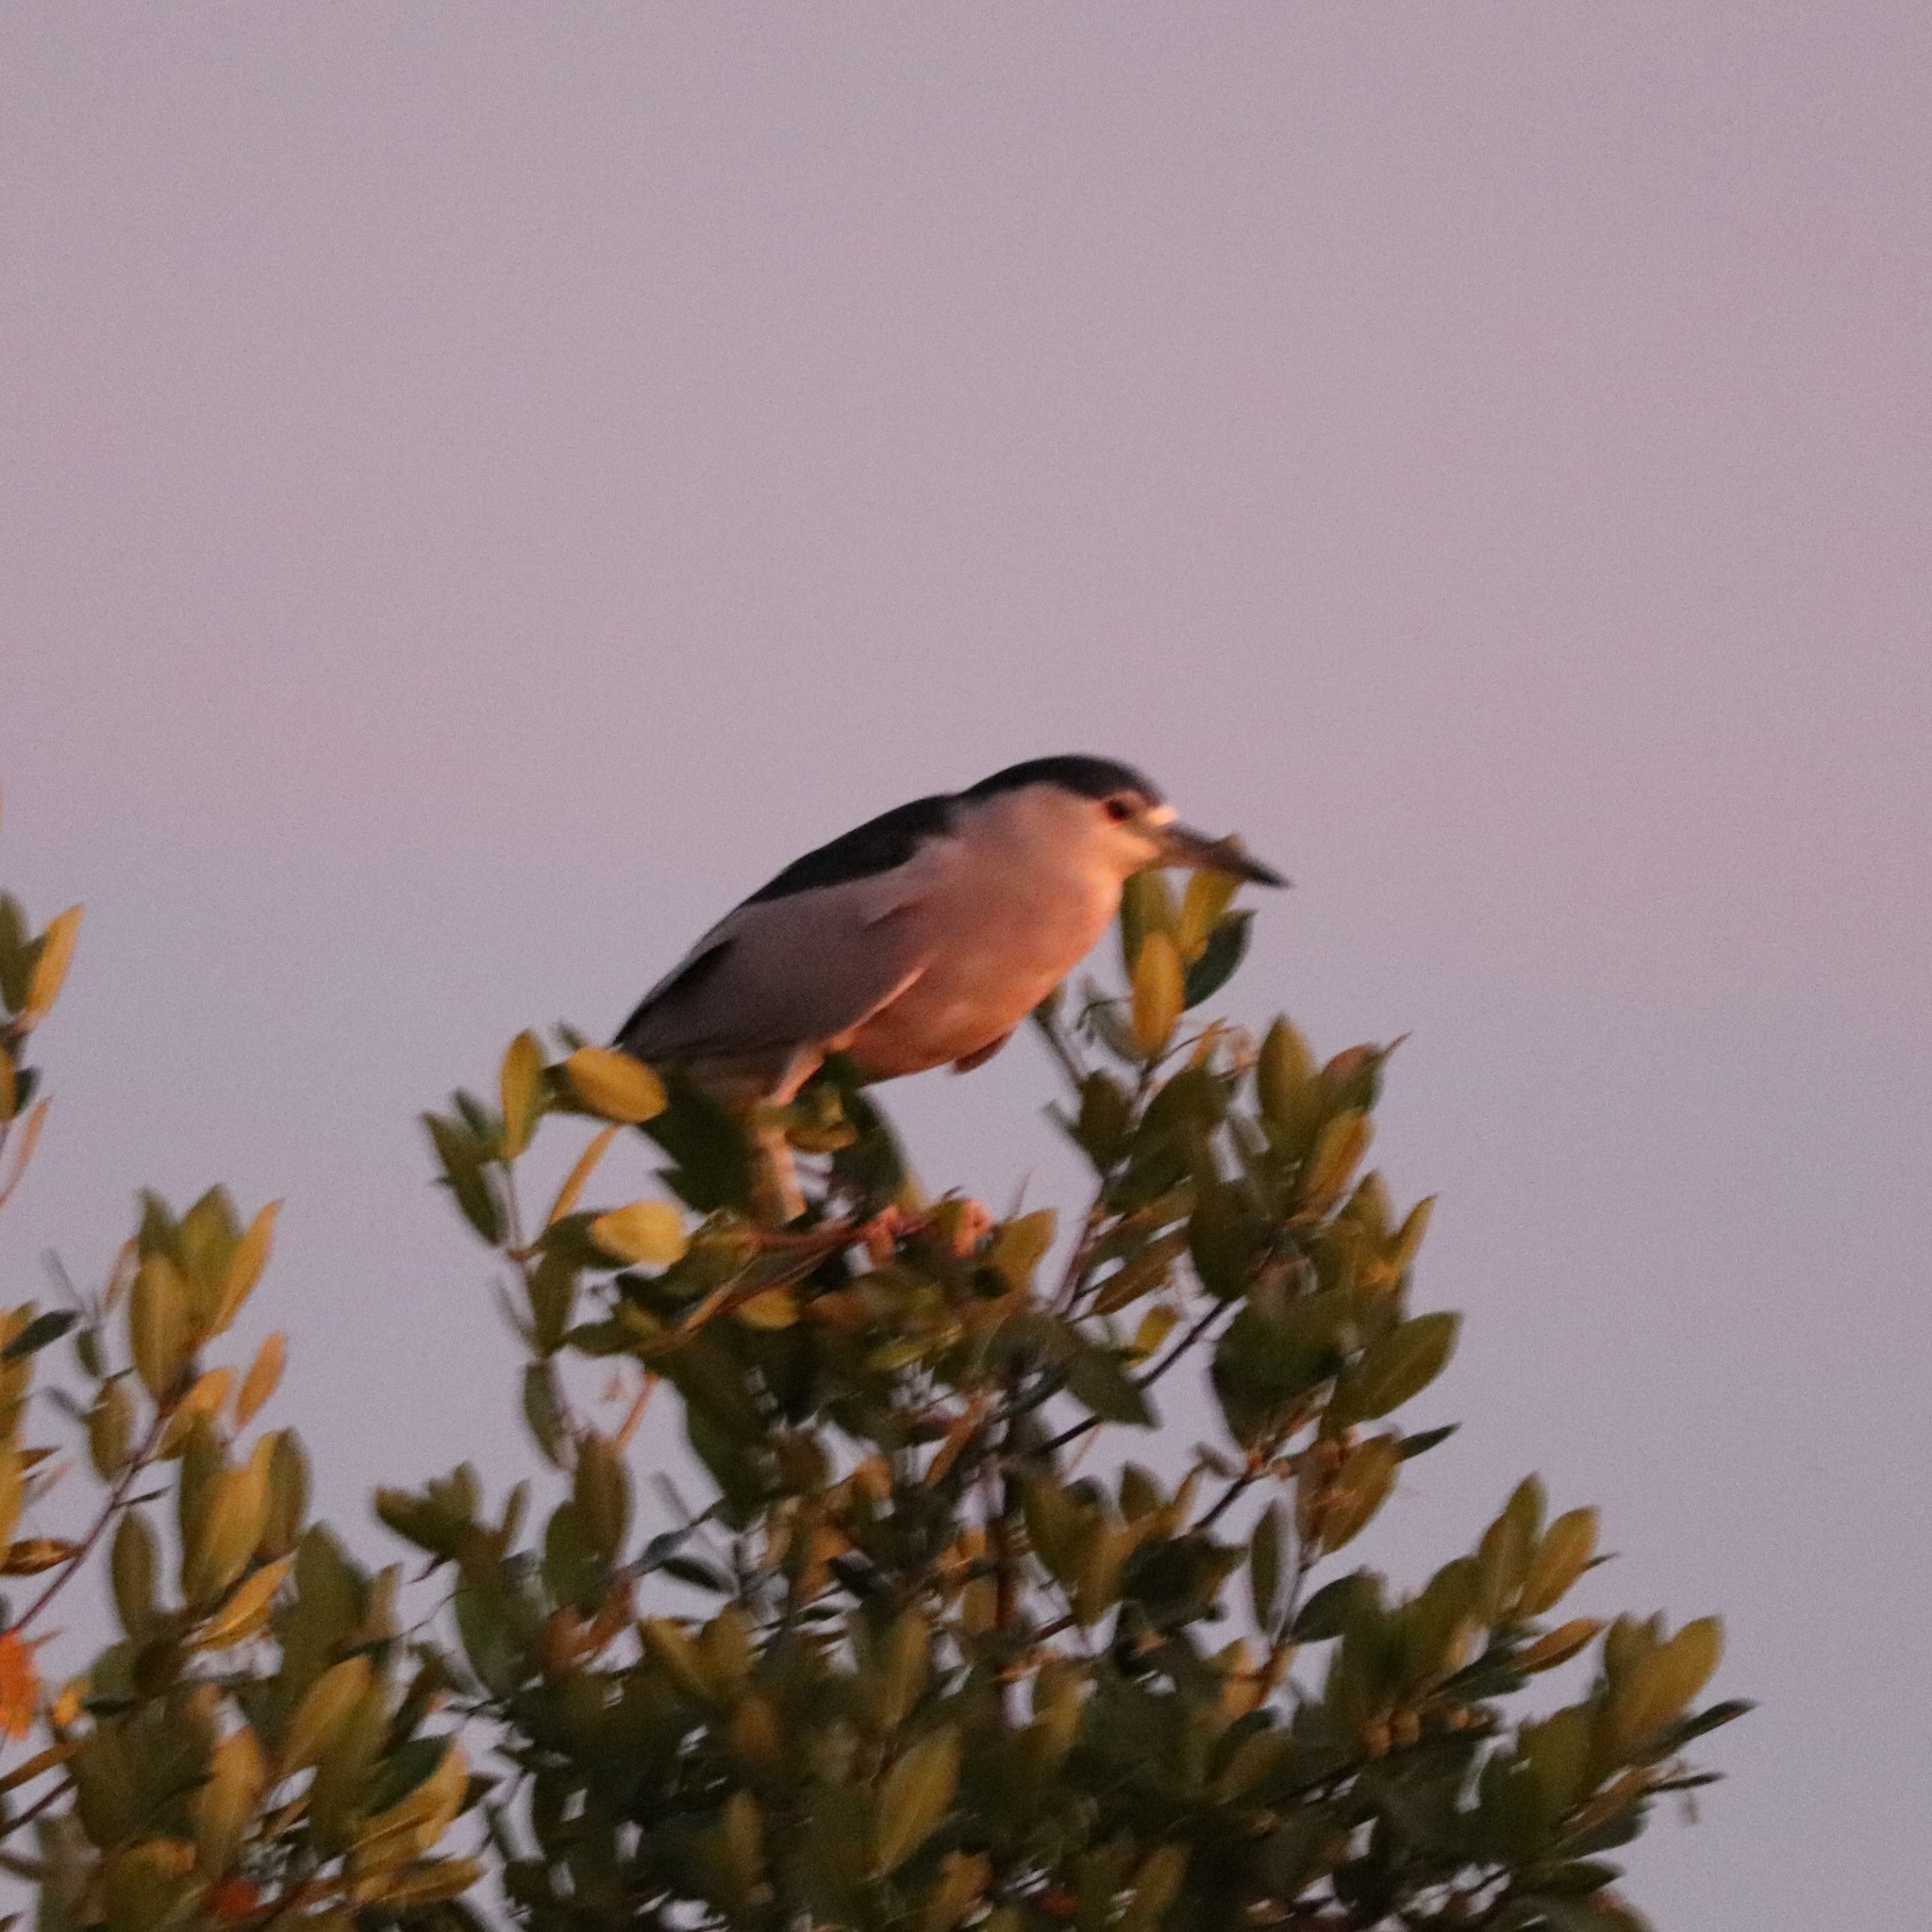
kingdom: Animalia
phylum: Chordata
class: Aves
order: Pelecaniformes
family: Ardeidae
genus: Nycticorax
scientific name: Nycticorax nycticorax
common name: Black-crowned night heron
